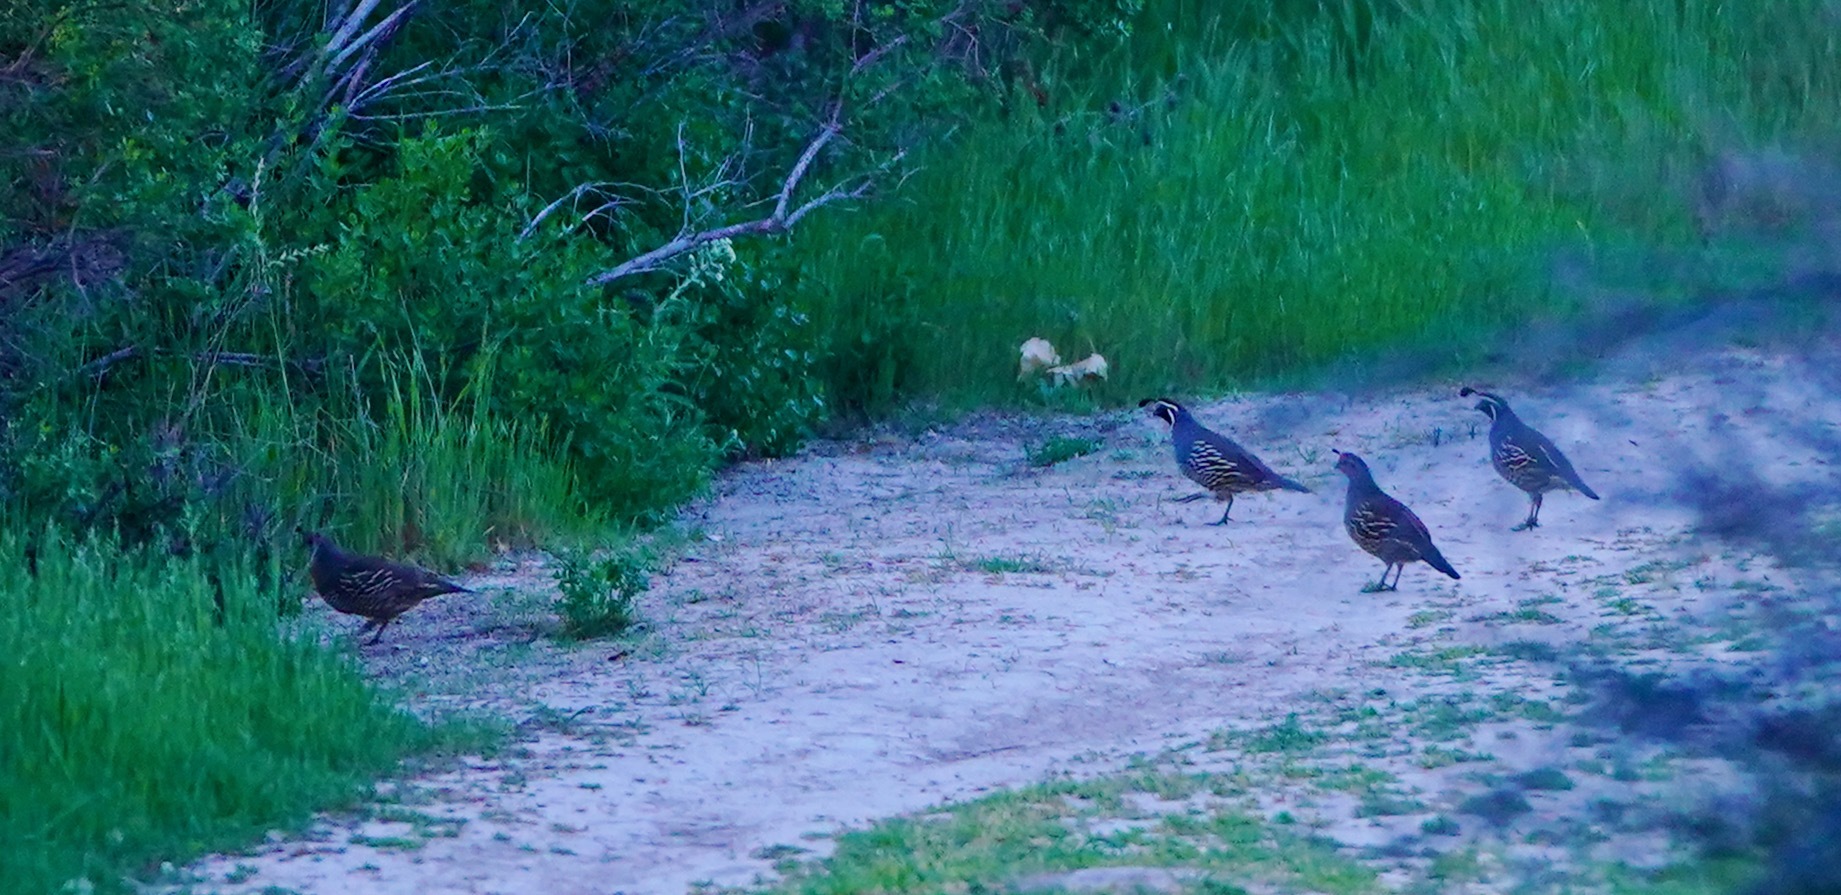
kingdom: Animalia
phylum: Chordata
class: Aves
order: Galliformes
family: Odontophoridae
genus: Callipepla
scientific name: Callipepla californica
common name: California quail
